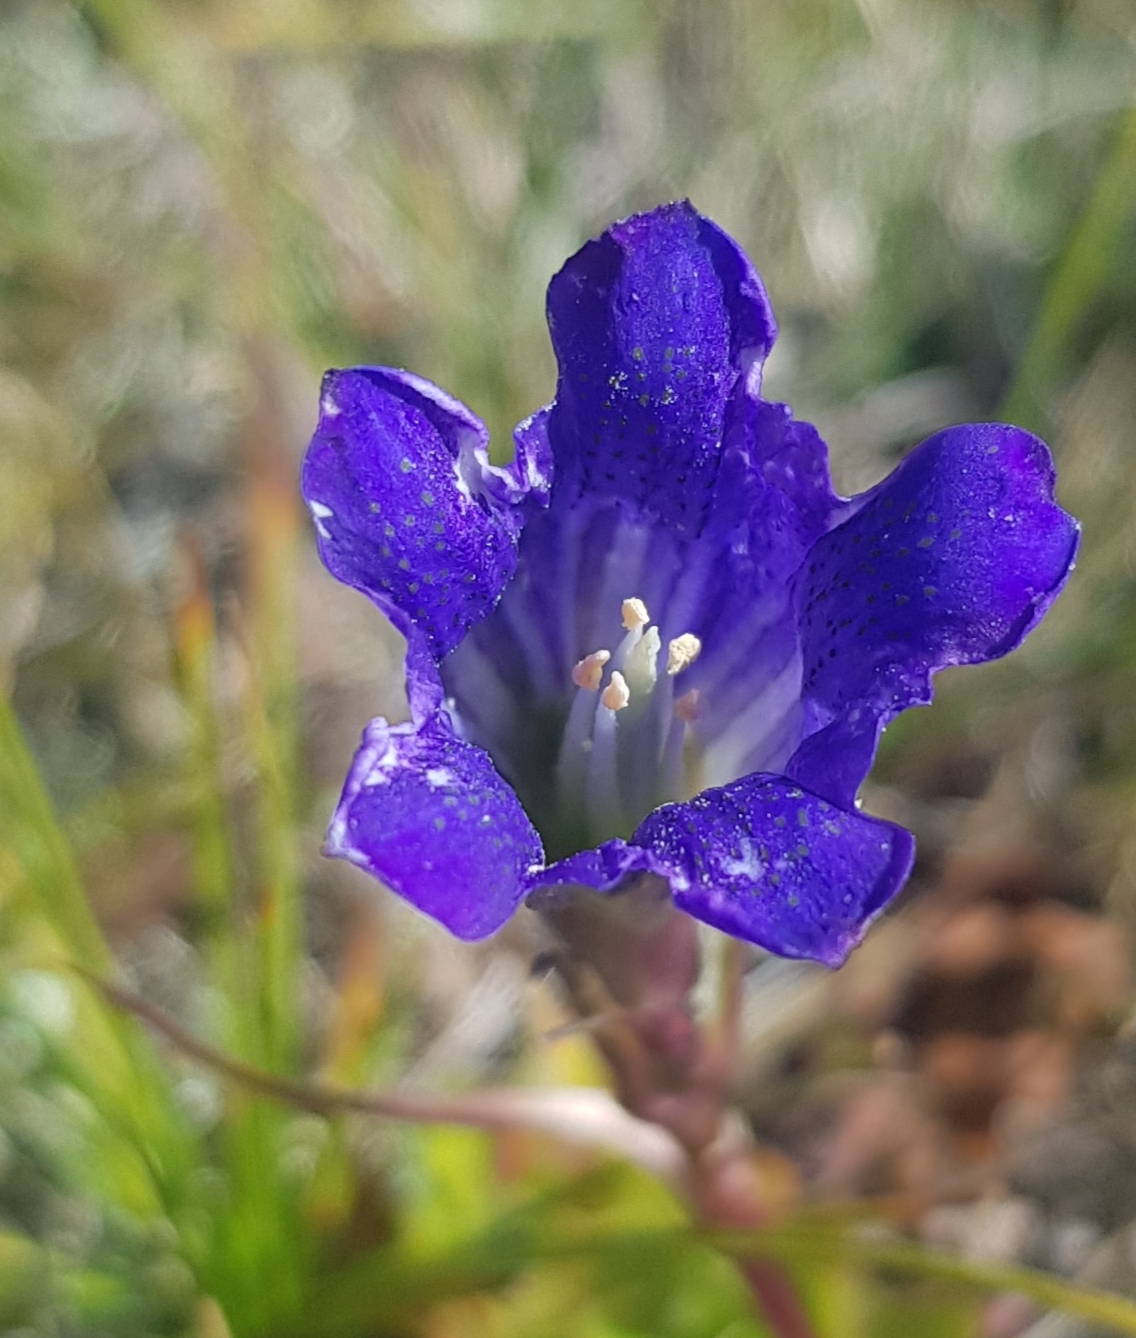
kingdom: Plantae
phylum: Tracheophyta
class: Magnoliopsida
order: Gentianales
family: Gentianaceae
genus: Gentiana
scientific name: Gentiana decumbens
